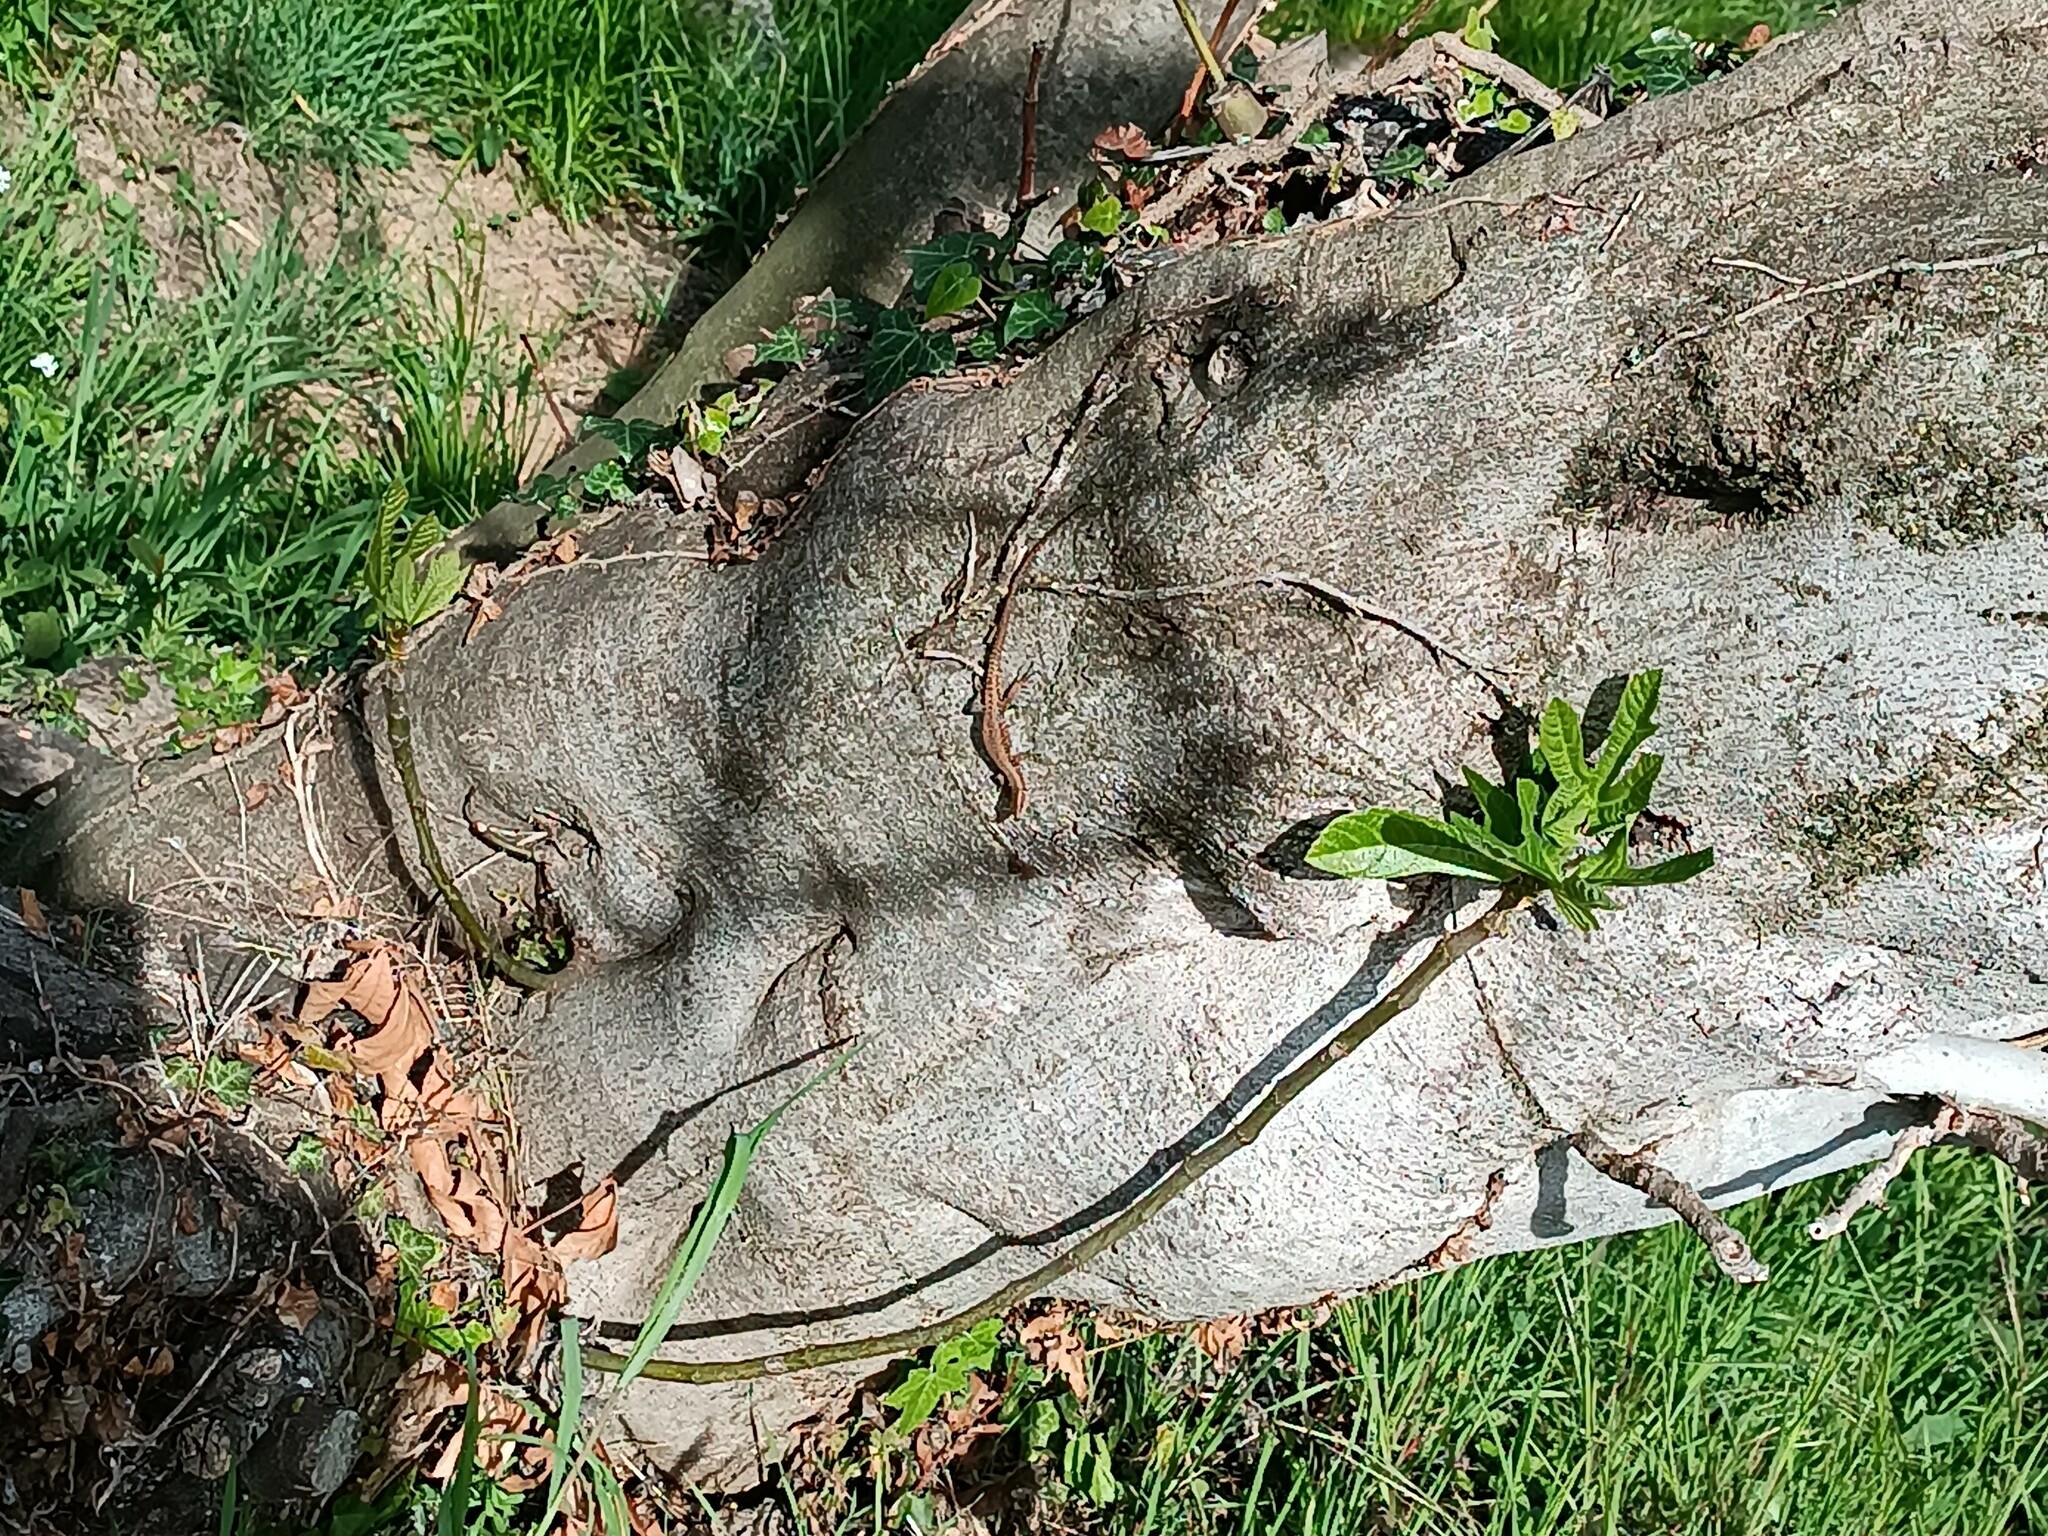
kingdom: Animalia
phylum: Chordata
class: Squamata
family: Lacertidae
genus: Podarcis
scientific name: Podarcis muralis
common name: Common wall lizard
